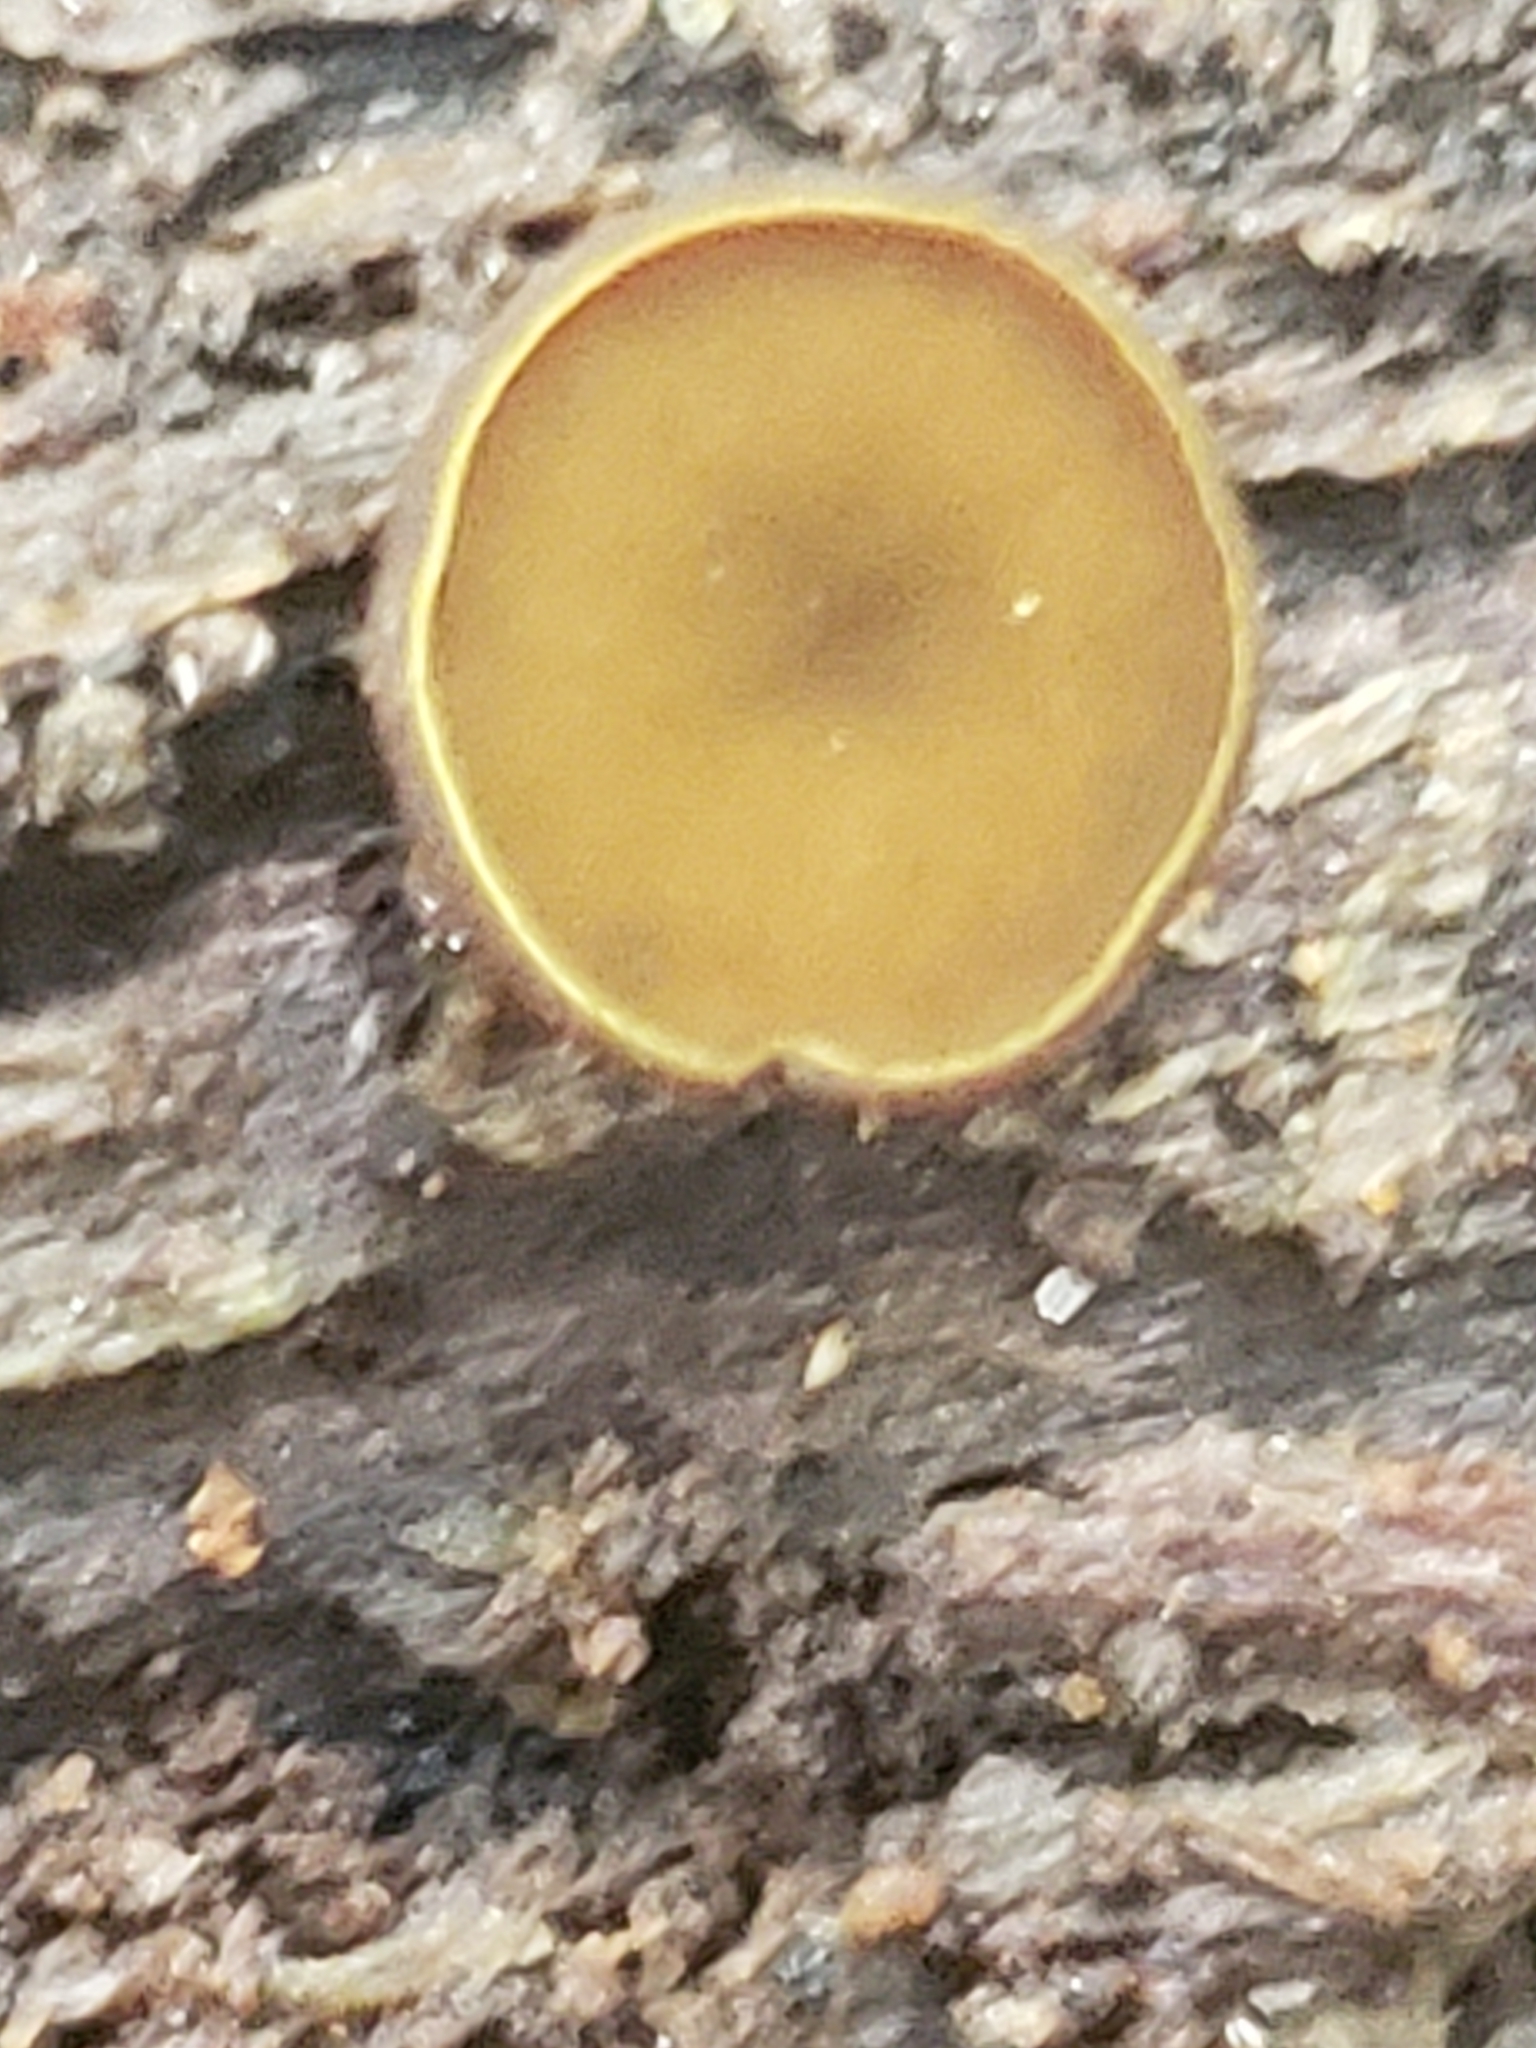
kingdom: Fungi
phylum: Ascomycota
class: Leotiomycetes
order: Helotiales
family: Cenangiaceae
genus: Chlorencoelia
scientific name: Chlorencoelia
